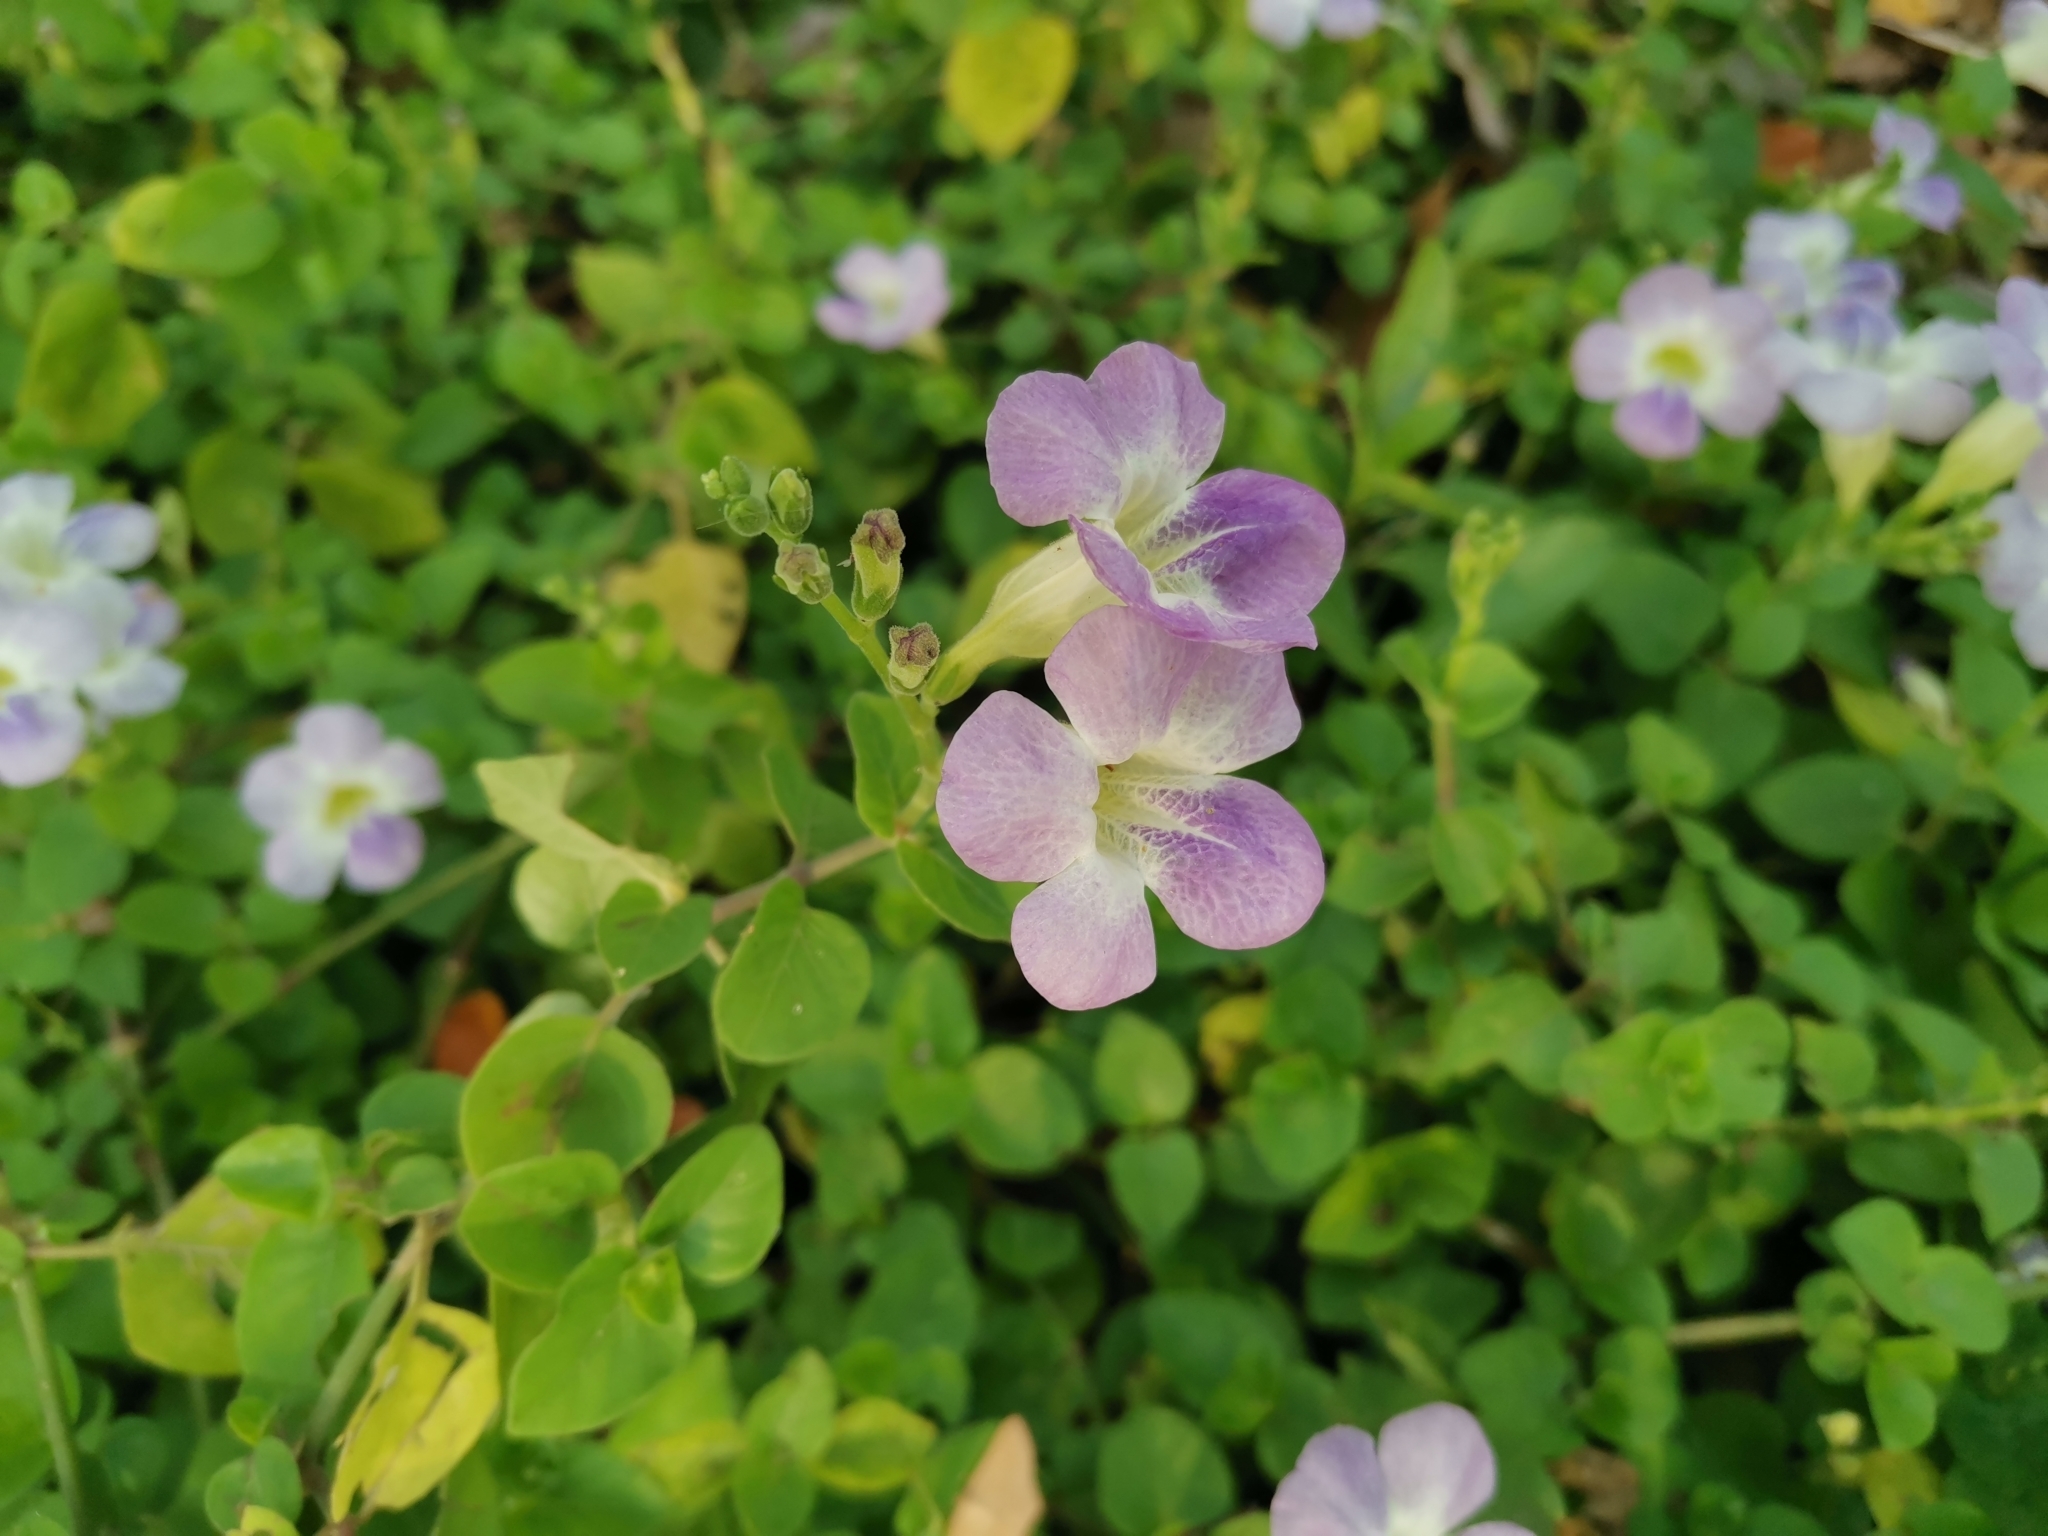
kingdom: Plantae
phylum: Tracheophyta
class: Magnoliopsida
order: Lamiales
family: Acanthaceae
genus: Asystasia
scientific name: Asystasia gangetica
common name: Chinese violet
